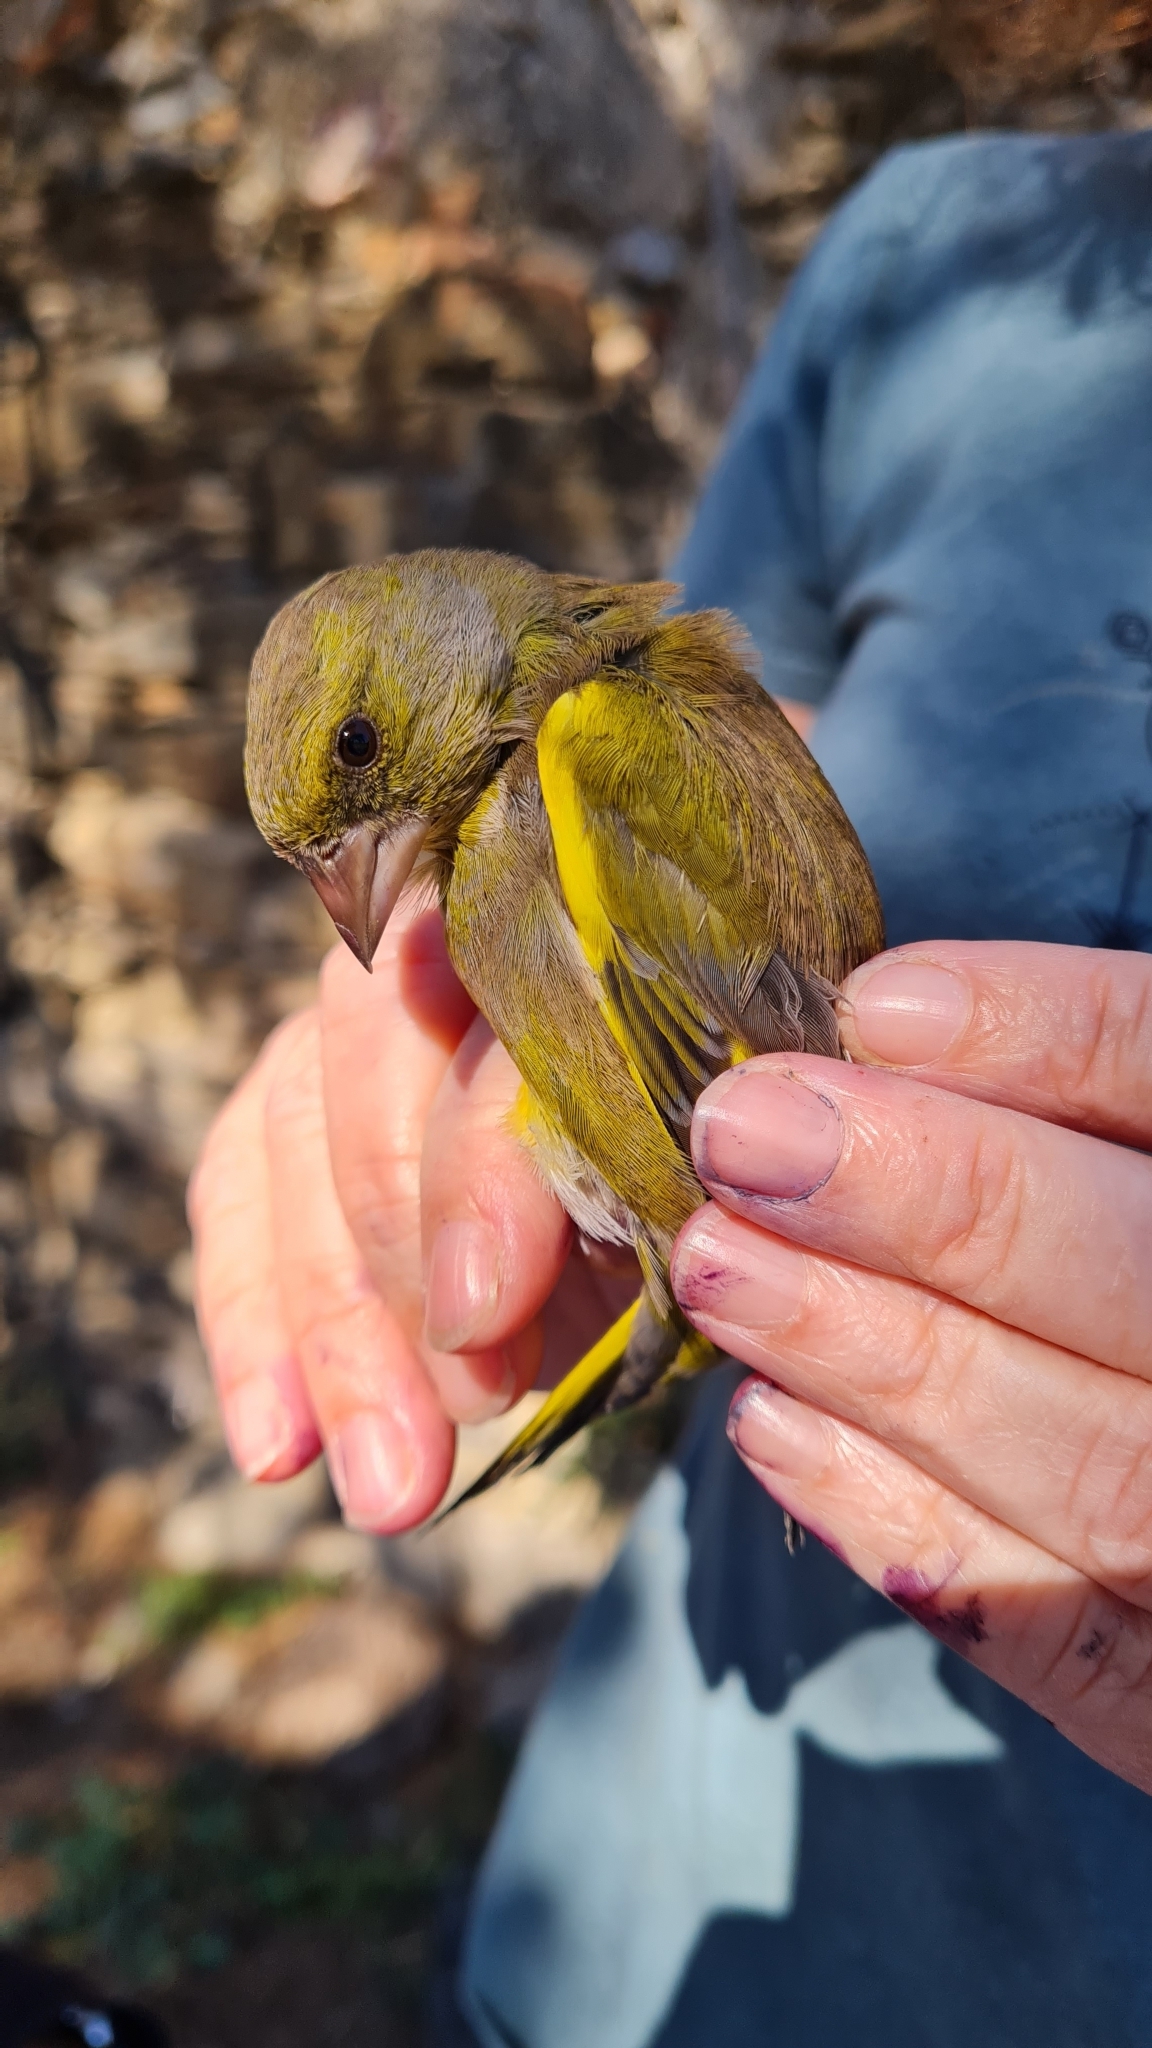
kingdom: Plantae
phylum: Tracheophyta
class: Liliopsida
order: Poales
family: Poaceae
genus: Chloris
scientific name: Chloris chloris
